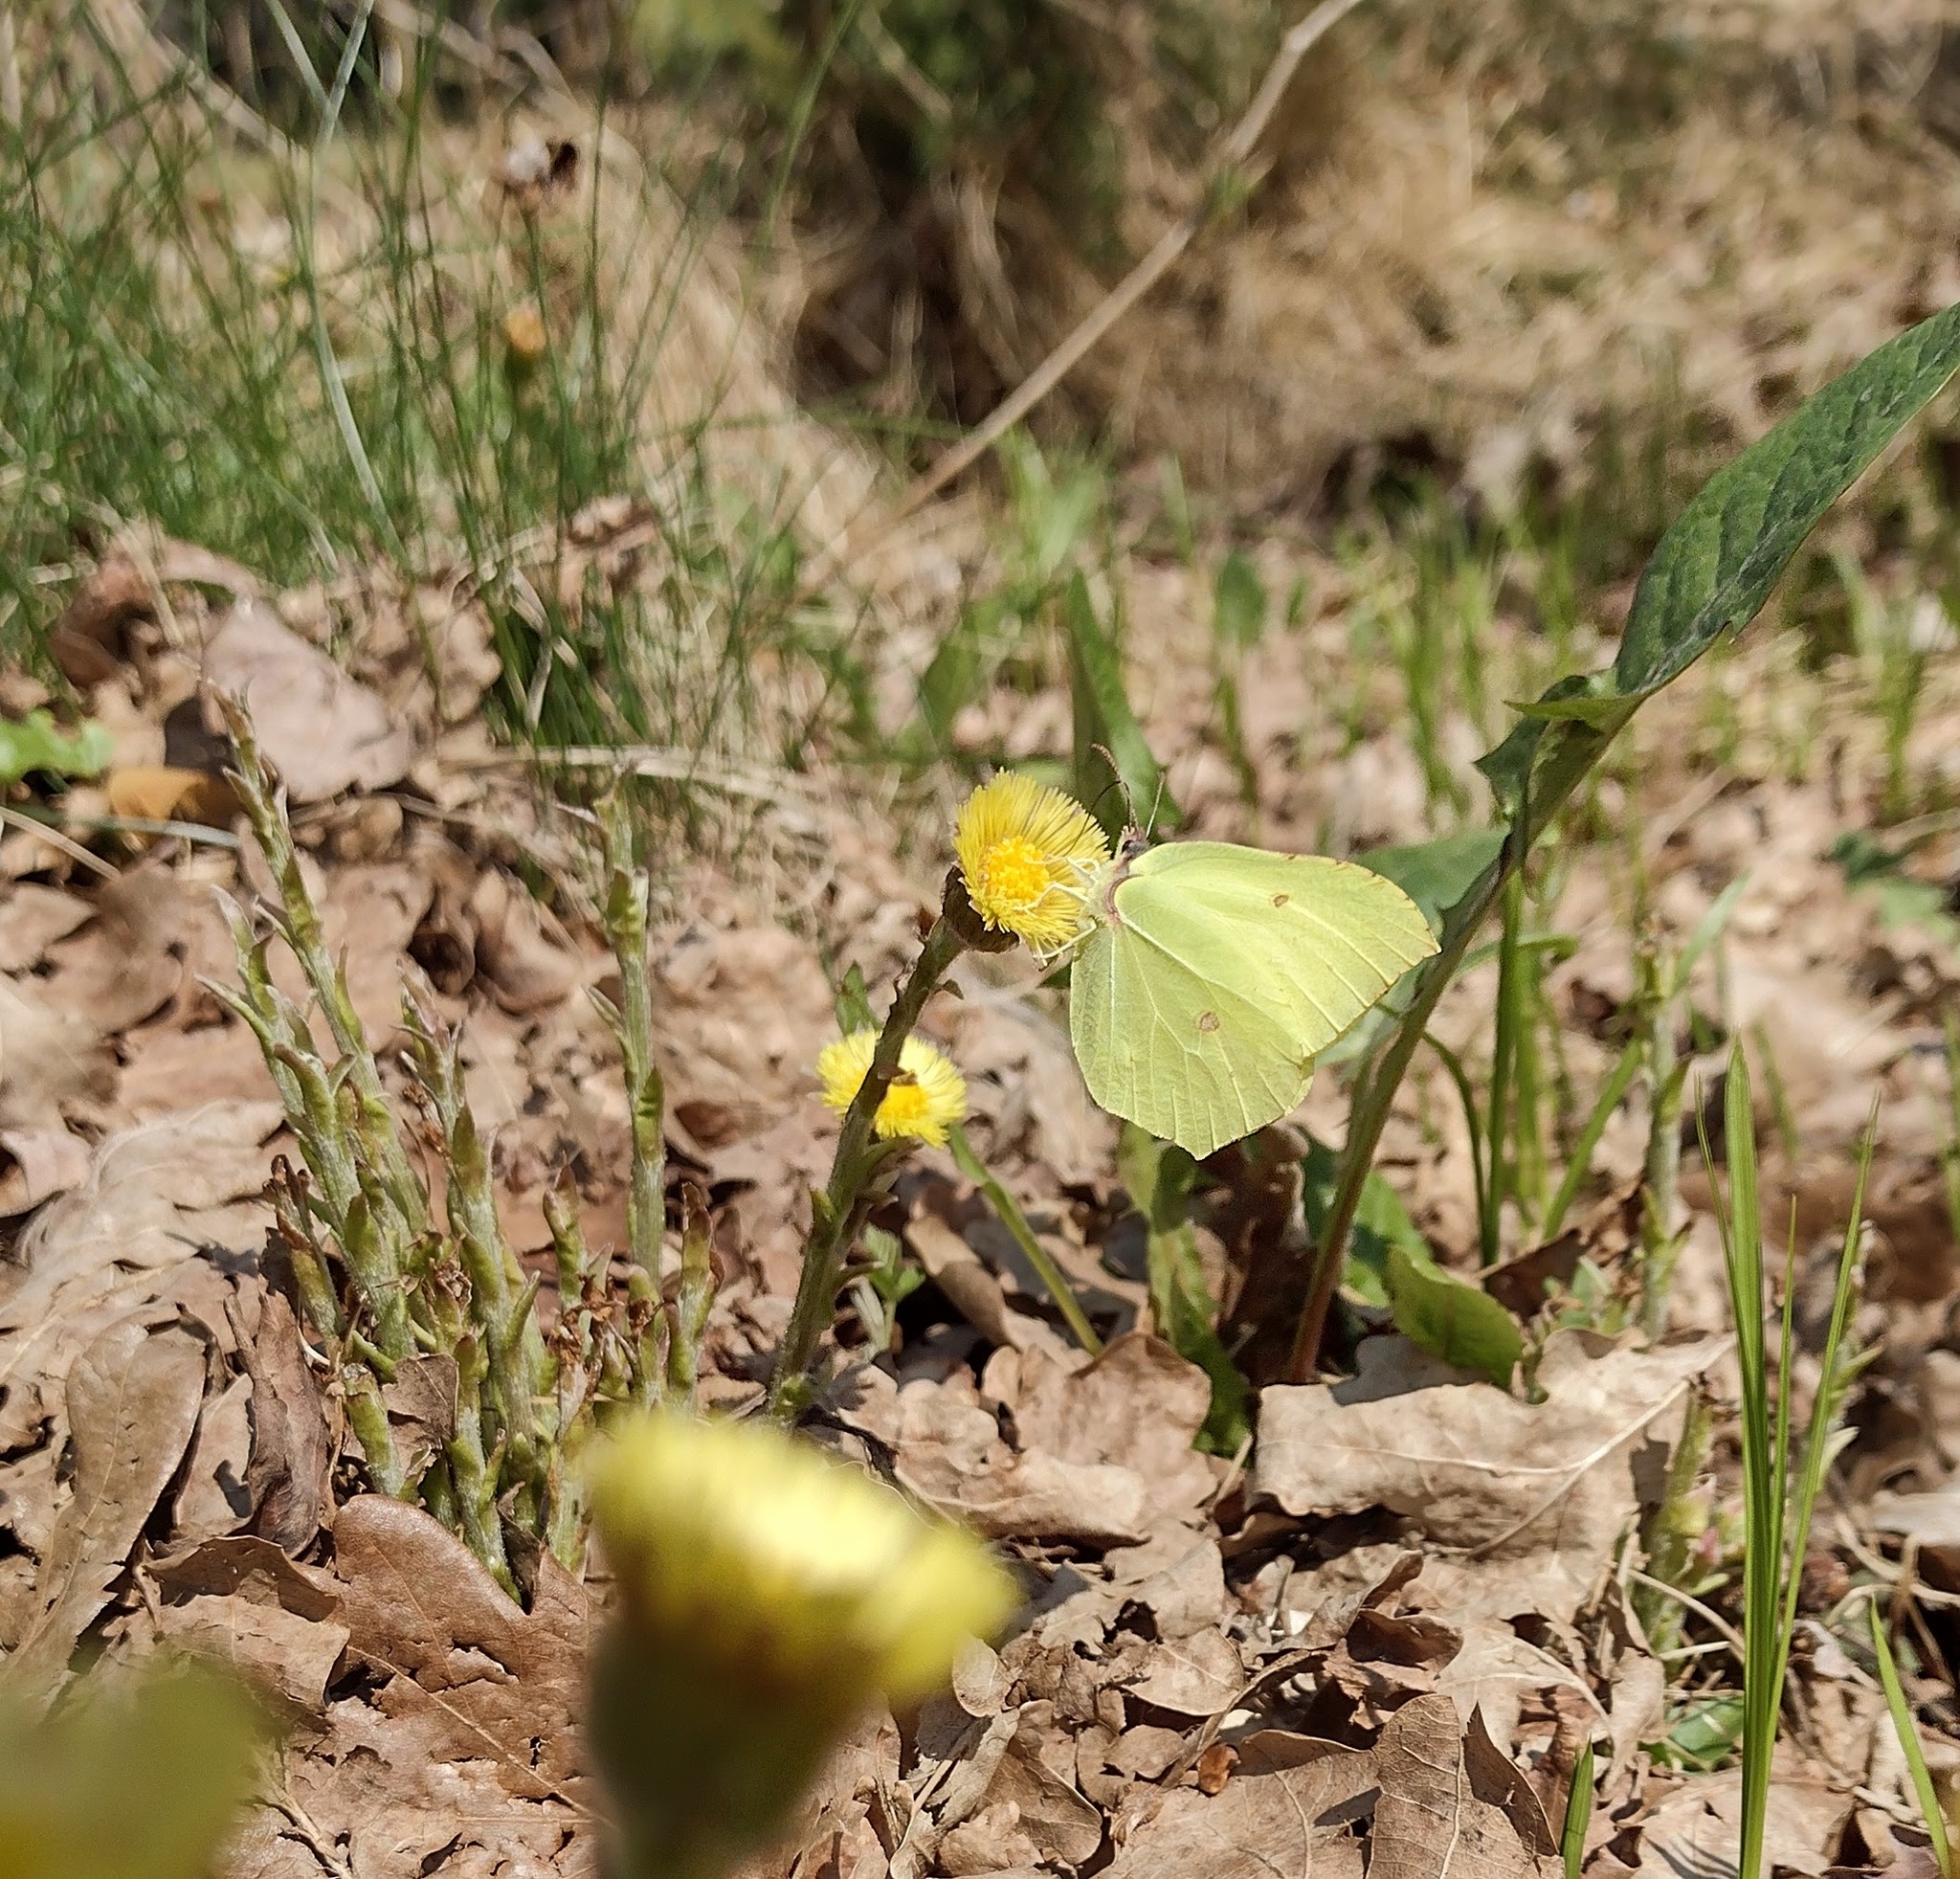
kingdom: Animalia
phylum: Arthropoda
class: Insecta
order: Lepidoptera
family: Pieridae
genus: Gonepteryx
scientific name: Gonepteryx rhamni
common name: Brimstone
